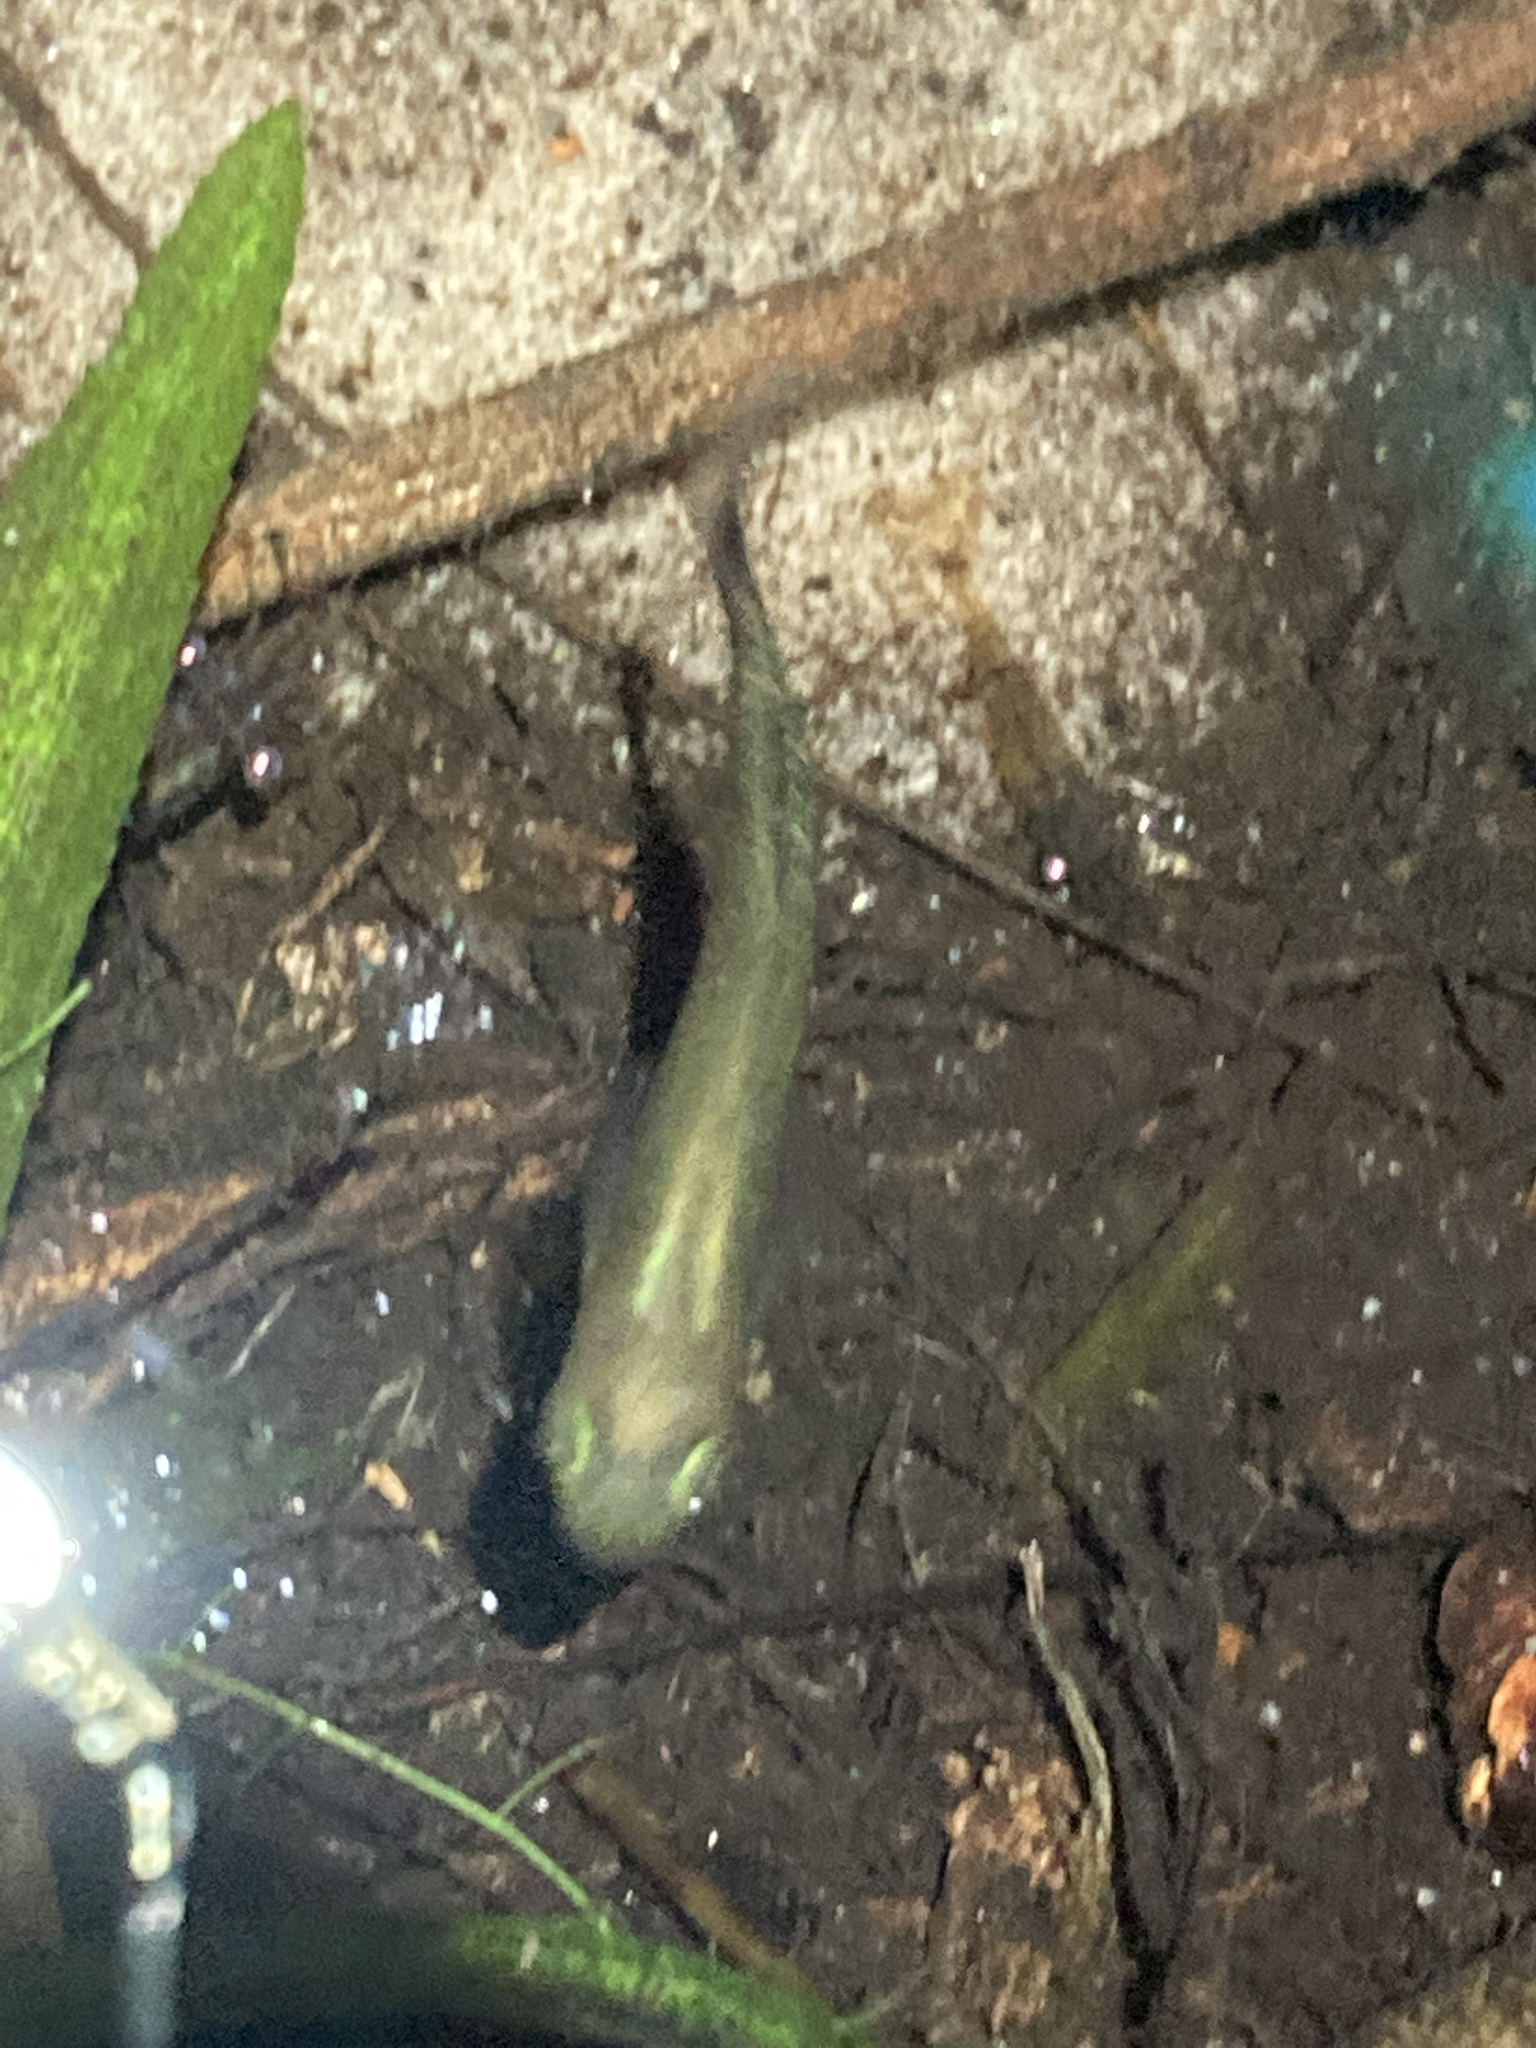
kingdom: Animalia
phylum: Chordata
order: Cyprinodontiformes
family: Poeciliidae
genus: Gambusia
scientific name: Gambusia holbrooki
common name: Eastern mosquitofish
